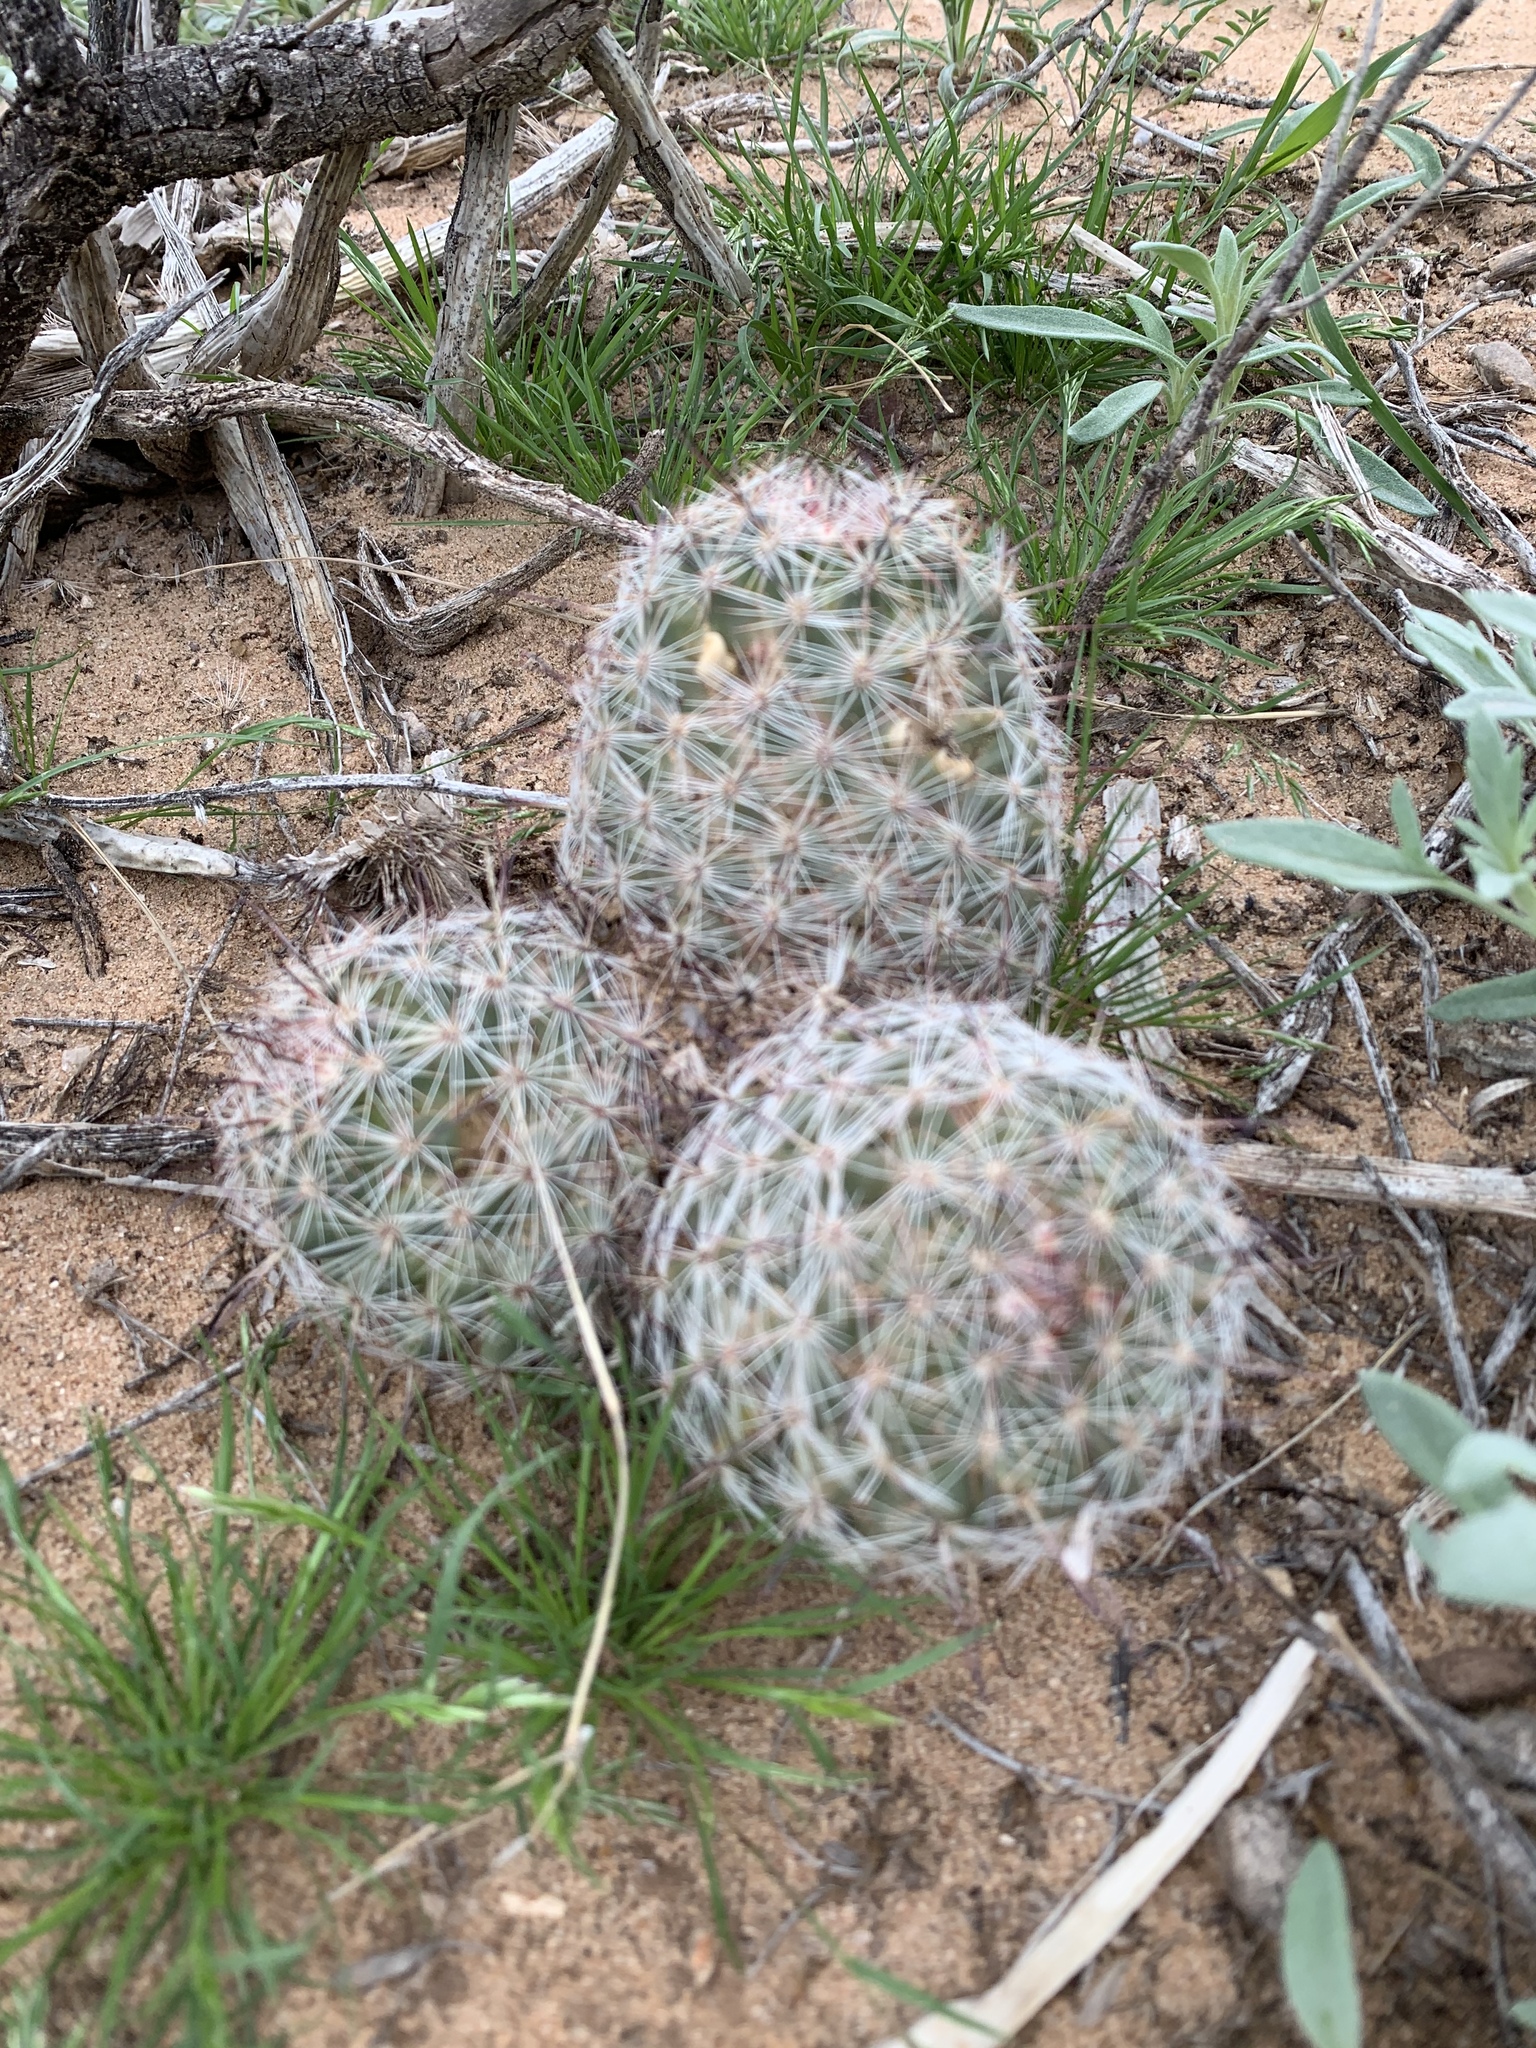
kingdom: Plantae
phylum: Tracheophyta
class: Magnoliopsida
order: Caryophyllales
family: Cactaceae
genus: Cochemiea
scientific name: Cochemiea grahamii
